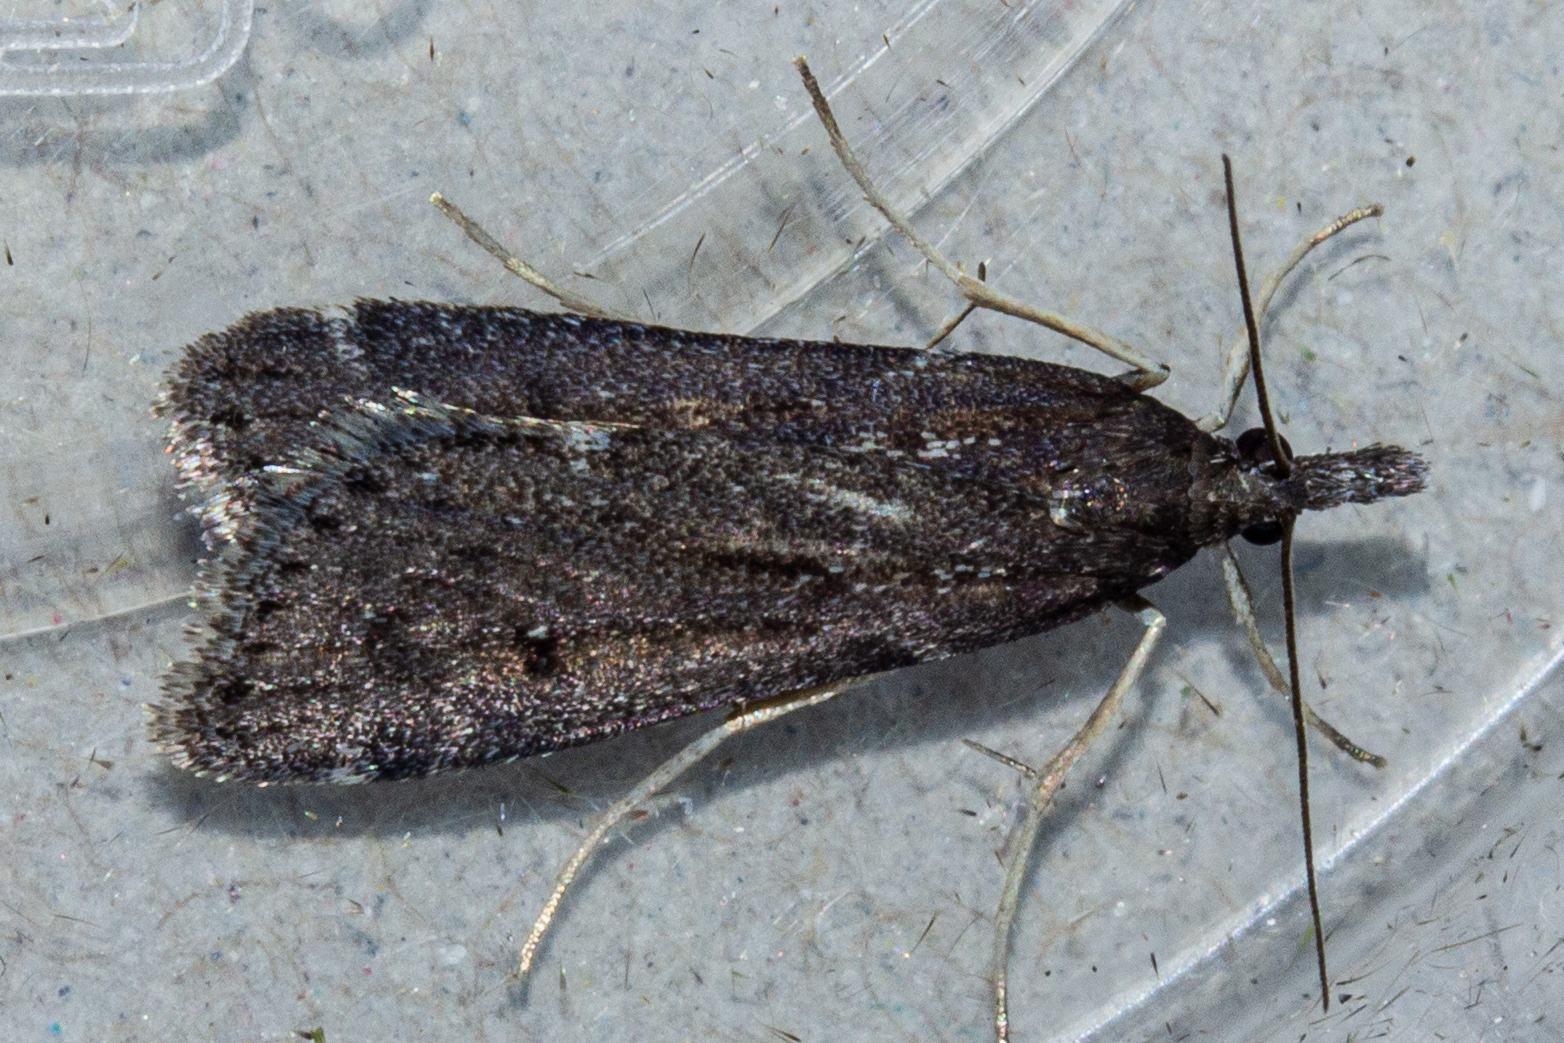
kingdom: Animalia
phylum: Arthropoda
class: Insecta
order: Lepidoptera
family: Crambidae
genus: Eudonia
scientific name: Eudonia oculata
